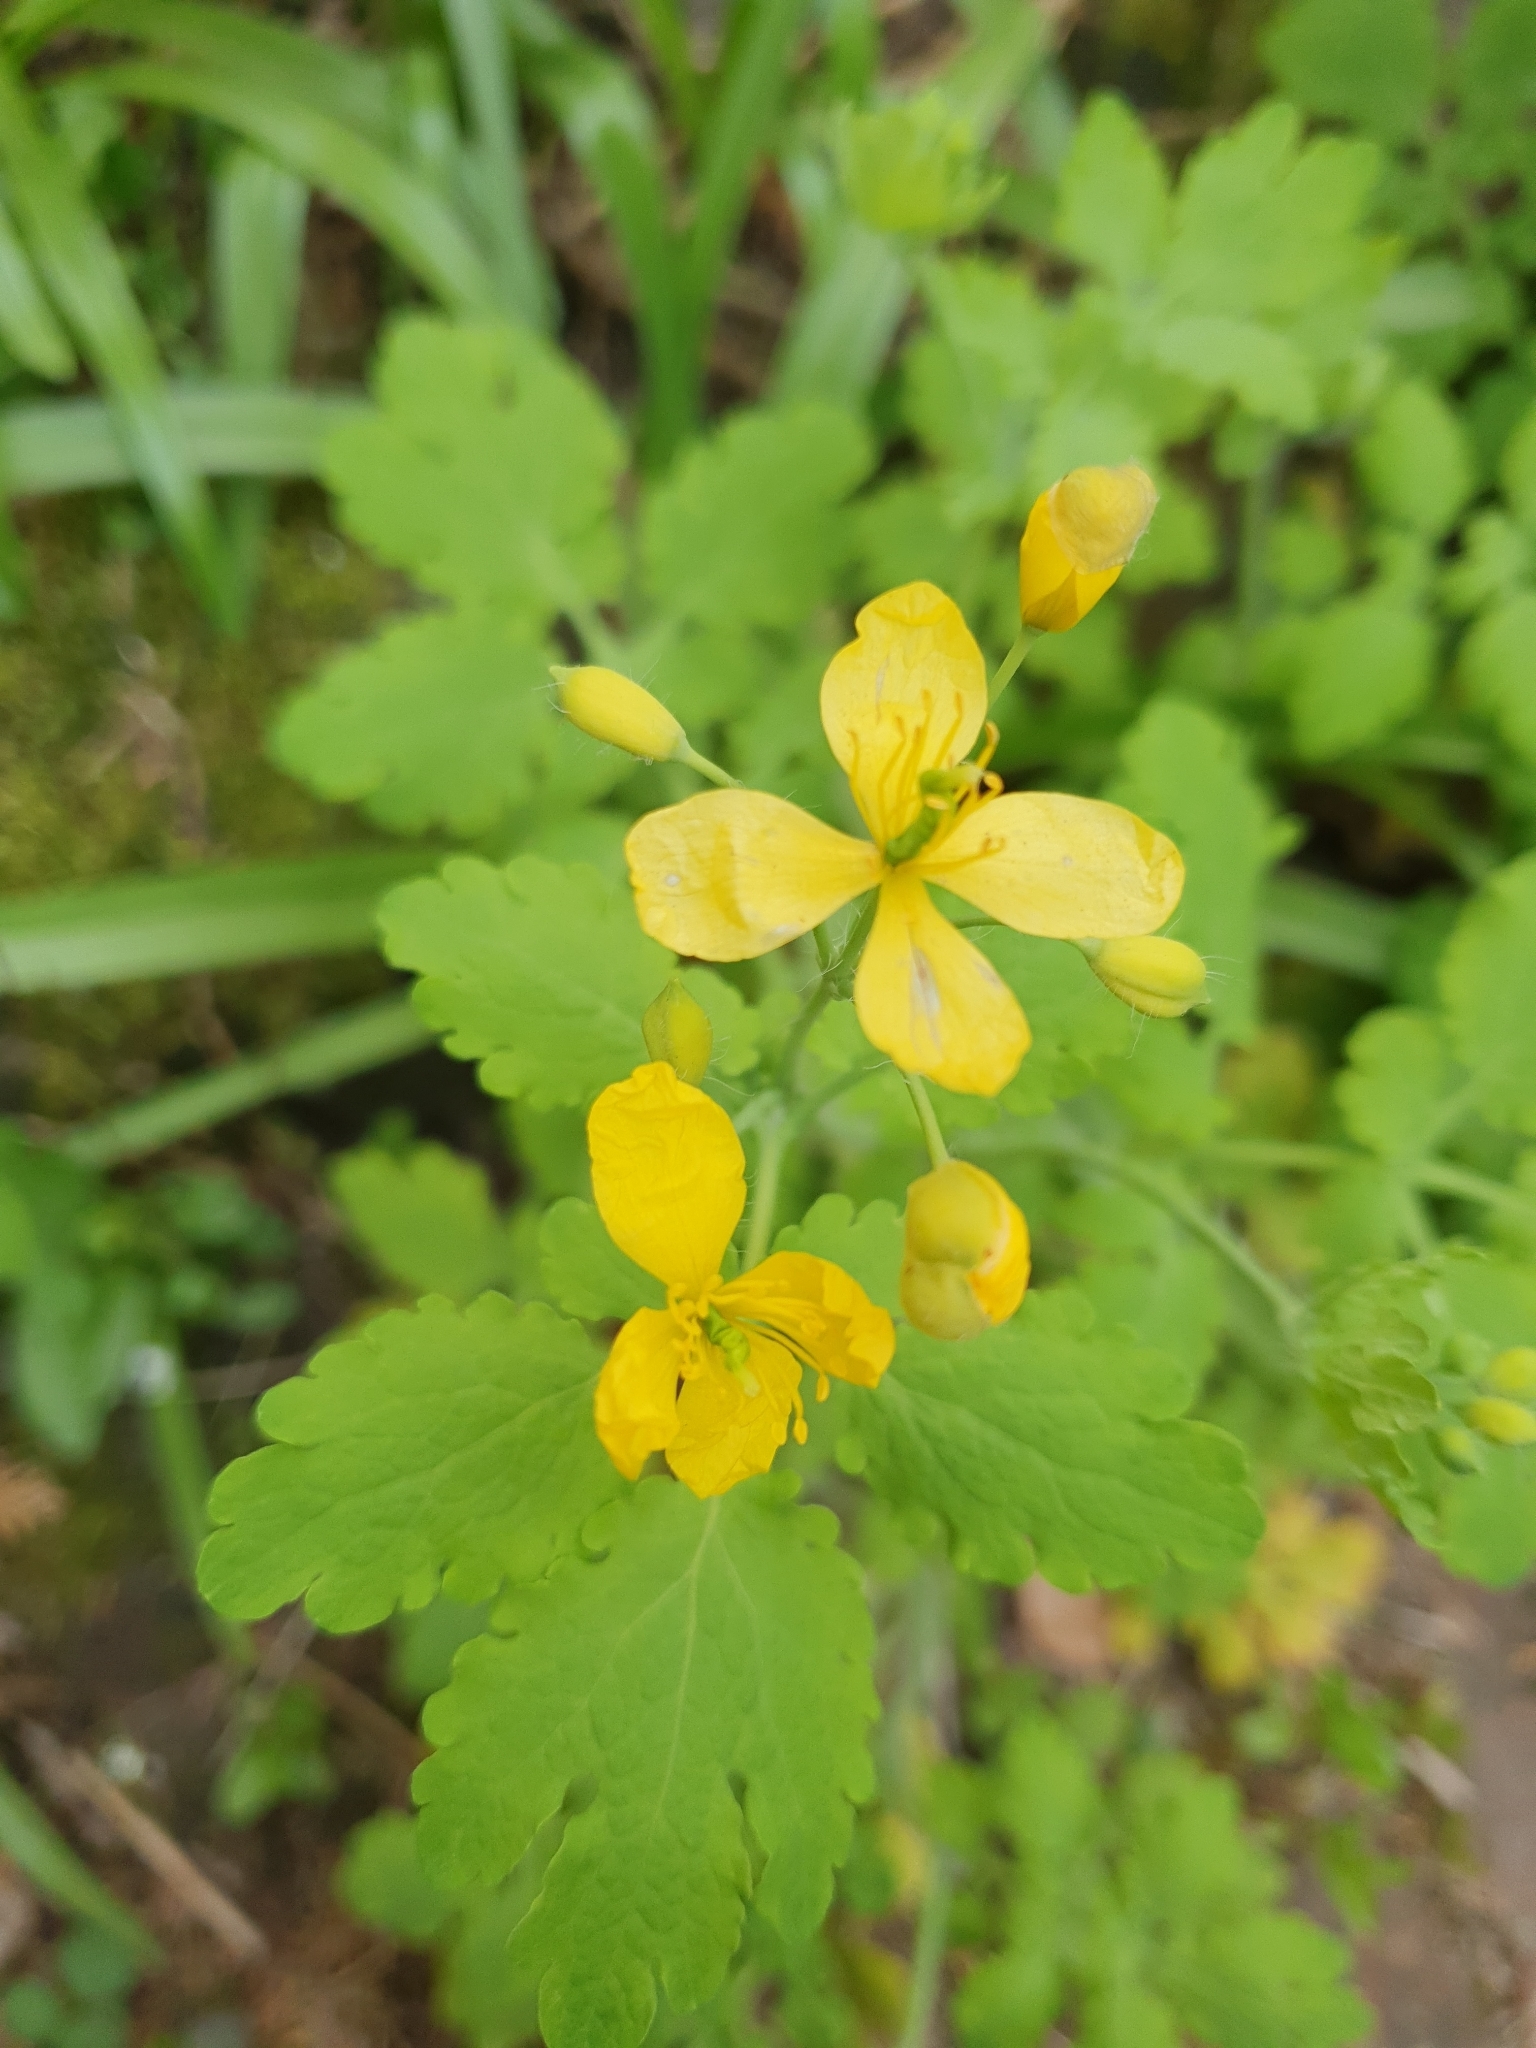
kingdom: Plantae
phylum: Tracheophyta
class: Magnoliopsida
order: Ranunculales
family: Papaveraceae
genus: Chelidonium
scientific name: Chelidonium majus
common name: Greater celandine
